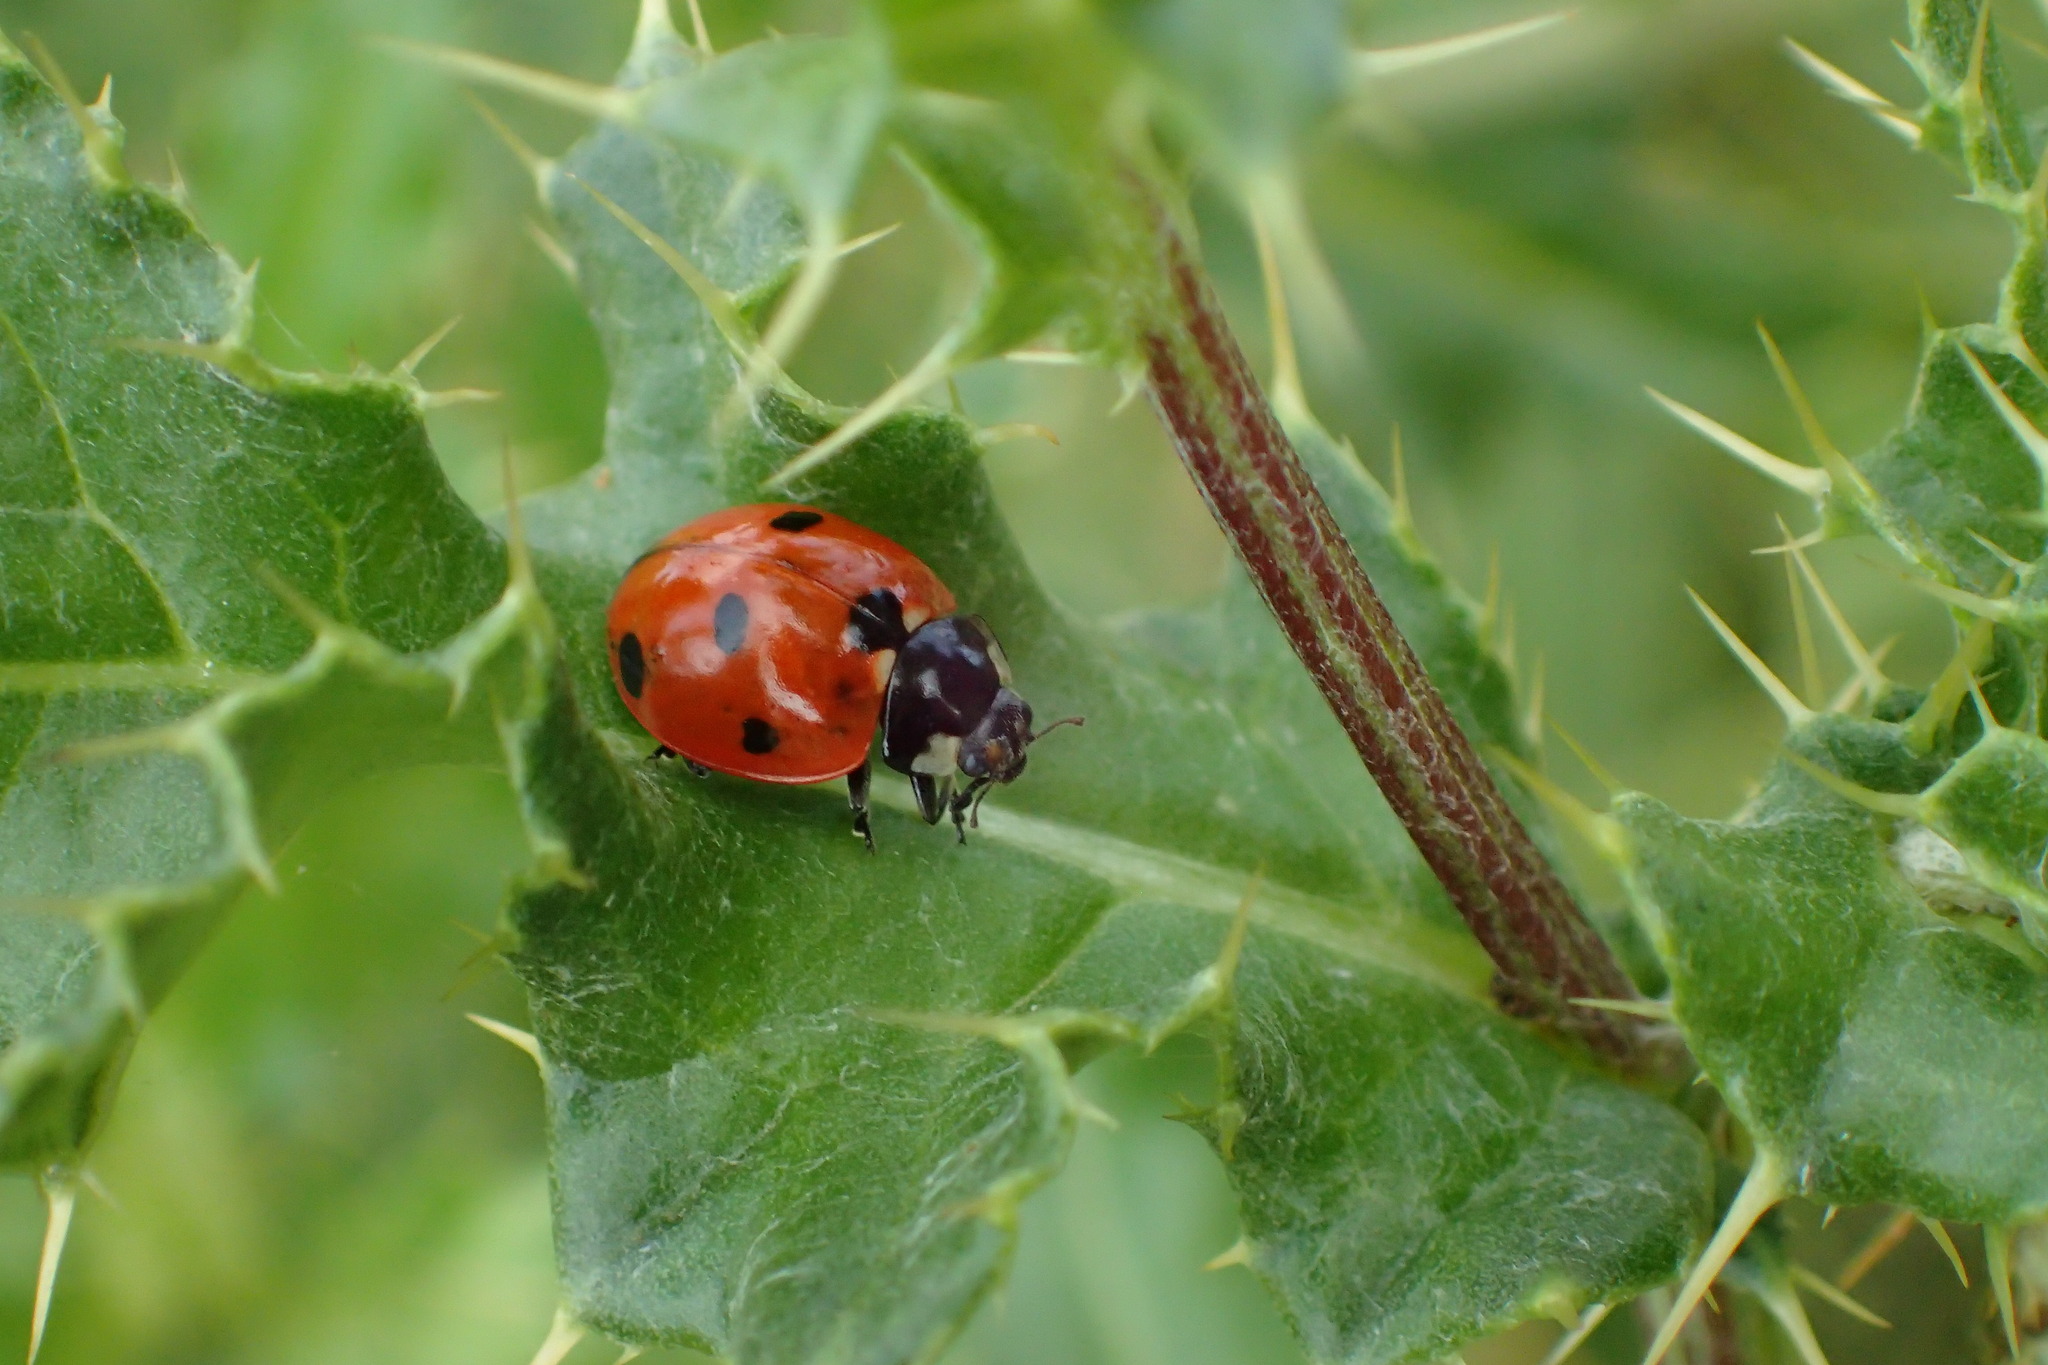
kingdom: Animalia
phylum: Arthropoda
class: Insecta
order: Coleoptera
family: Coccinellidae
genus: Coccinella
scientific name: Coccinella septempunctata
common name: Sevenspotted lady beetle
